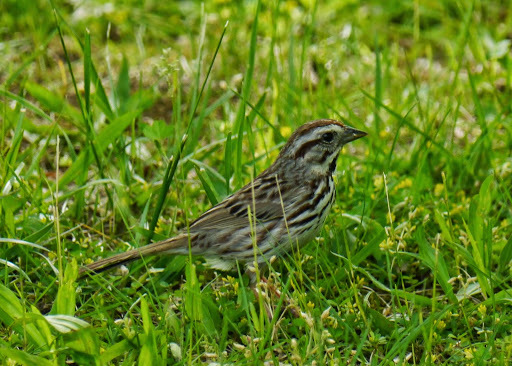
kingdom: Animalia
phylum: Chordata
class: Aves
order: Passeriformes
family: Passerellidae
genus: Melospiza
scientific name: Melospiza melodia
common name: Song sparrow
